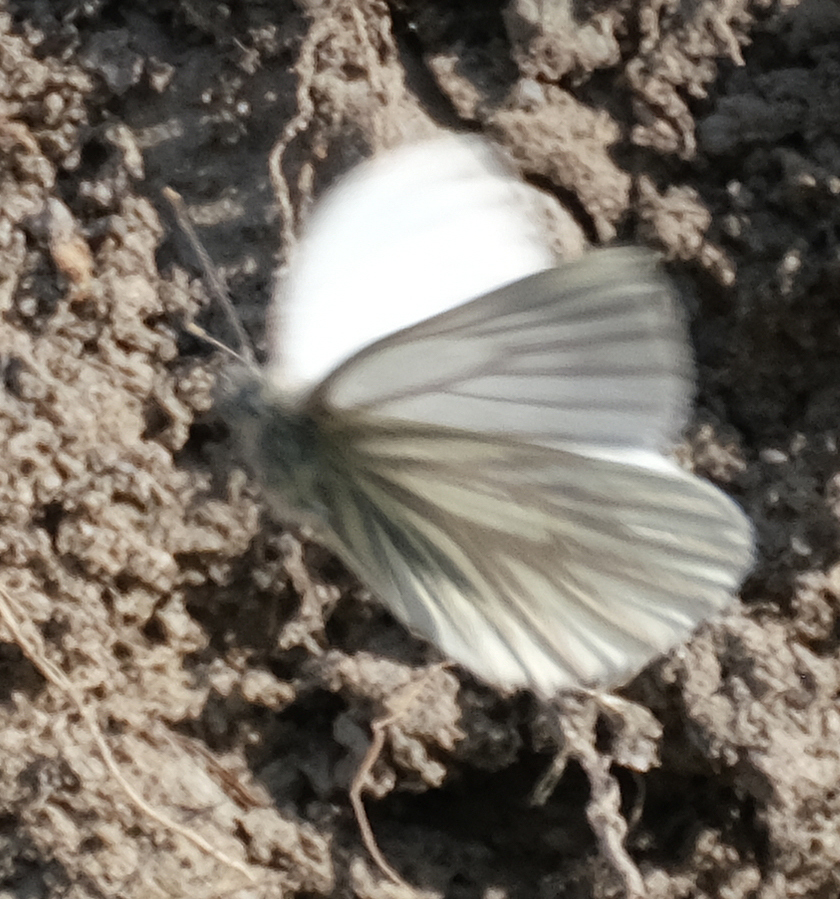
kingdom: Animalia
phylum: Arthropoda
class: Insecta
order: Lepidoptera
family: Pieridae
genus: Pieris
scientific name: Pieris marginalis
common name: Margined white
